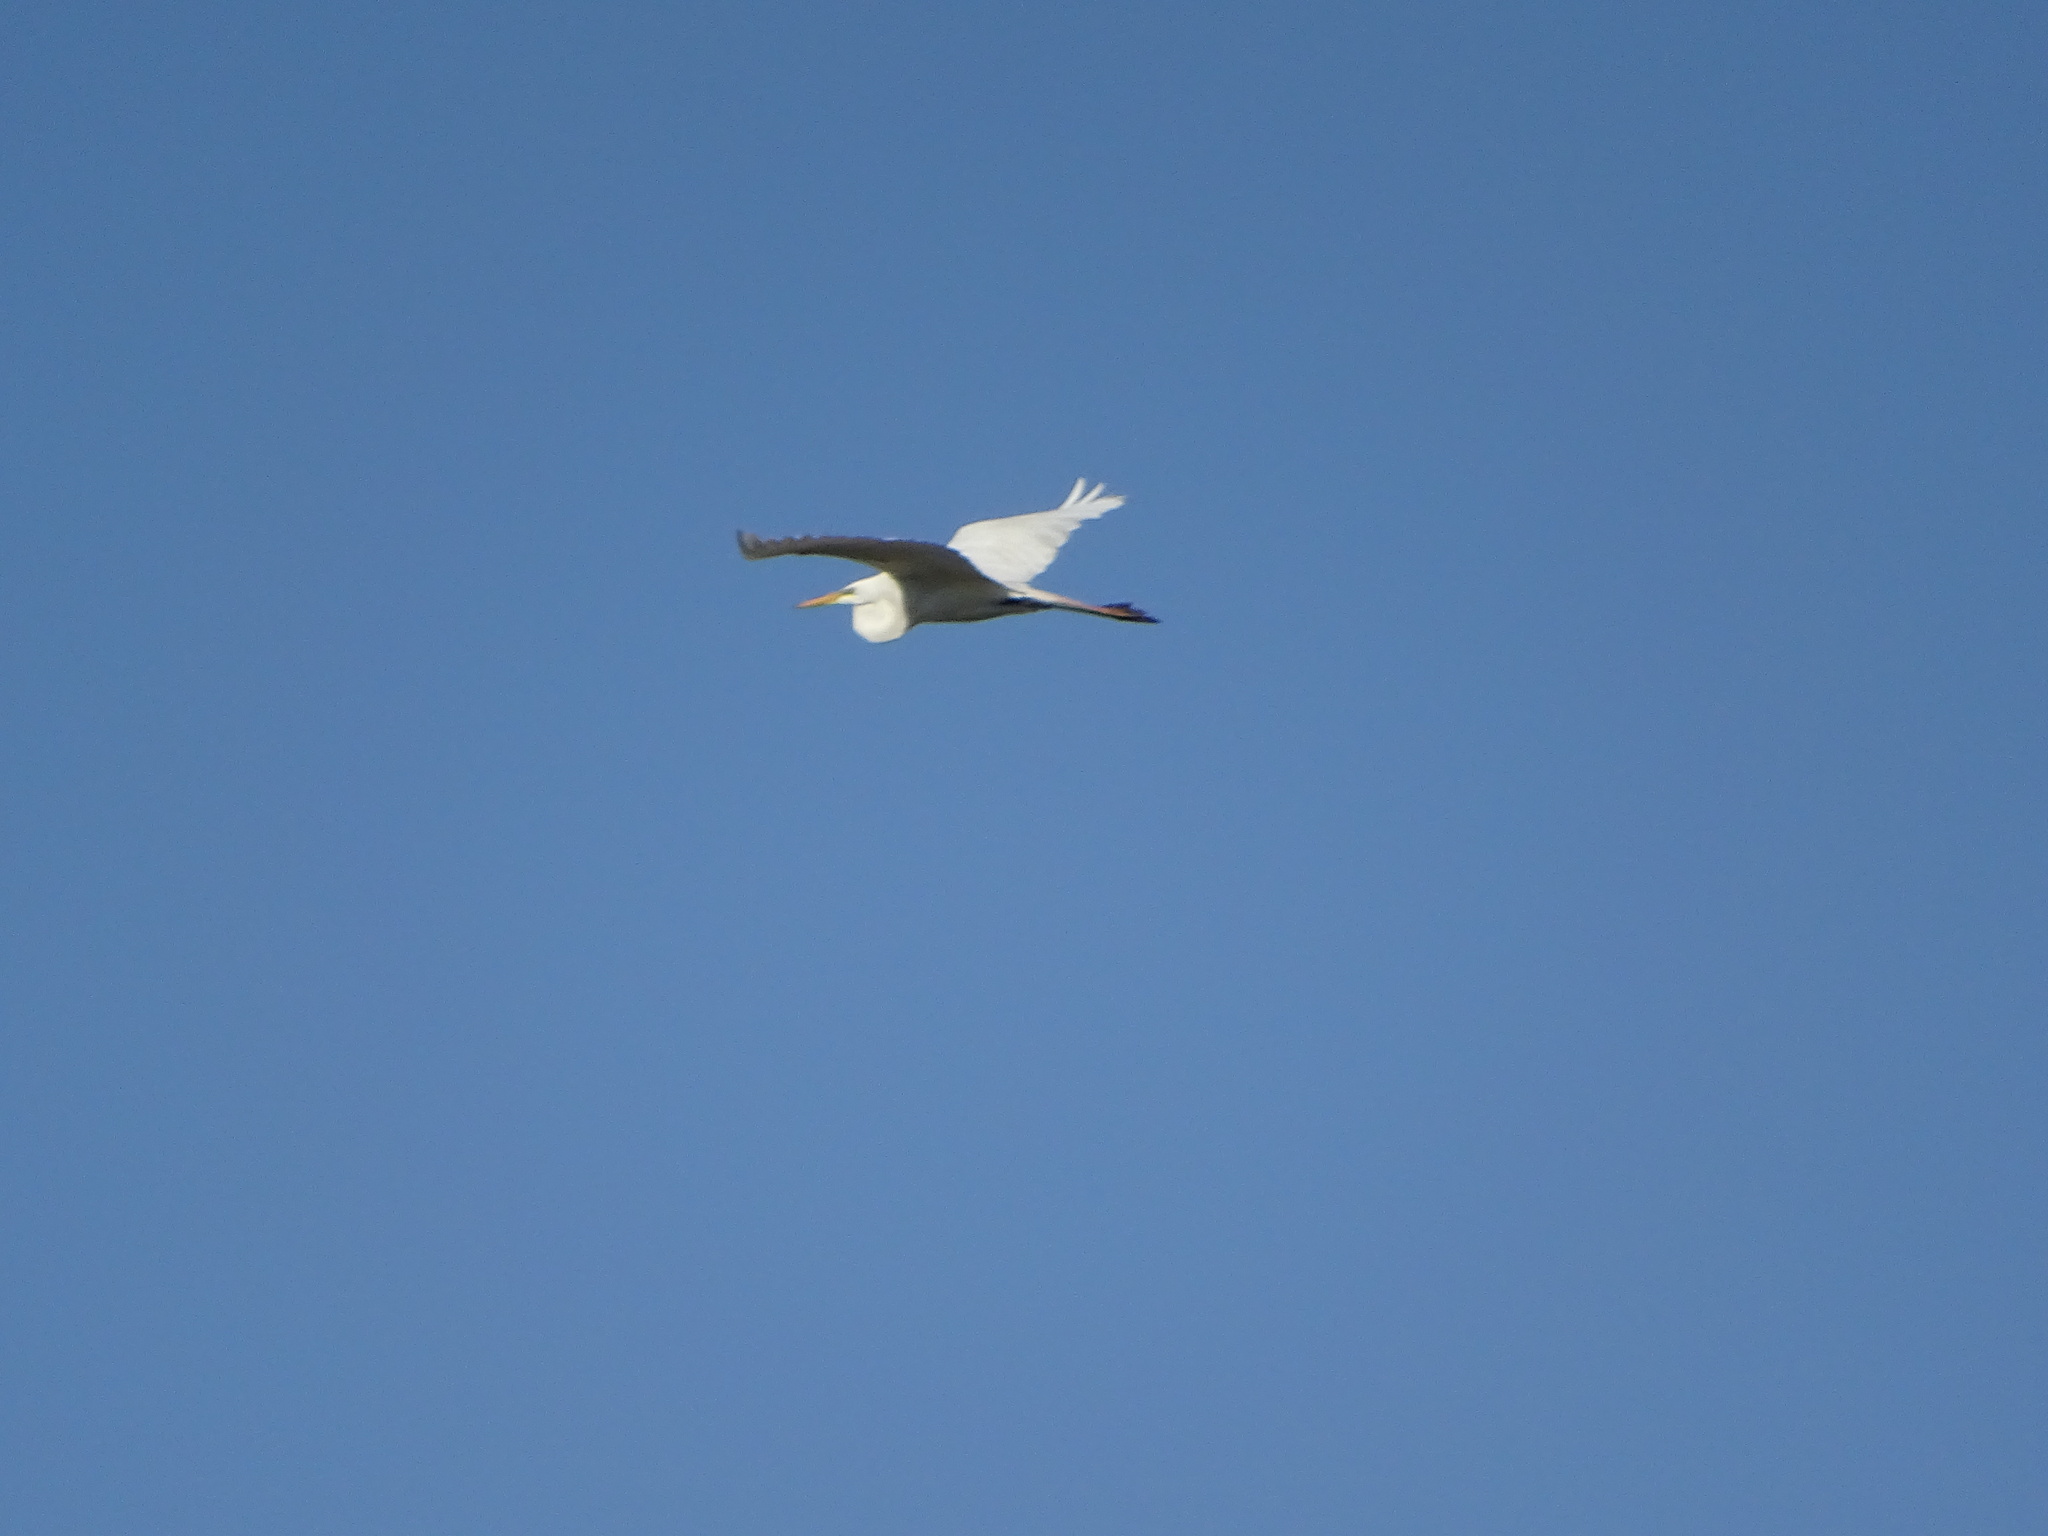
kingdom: Animalia
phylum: Chordata
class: Aves
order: Pelecaniformes
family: Ardeidae
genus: Ardea
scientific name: Ardea alba
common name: Great egret
